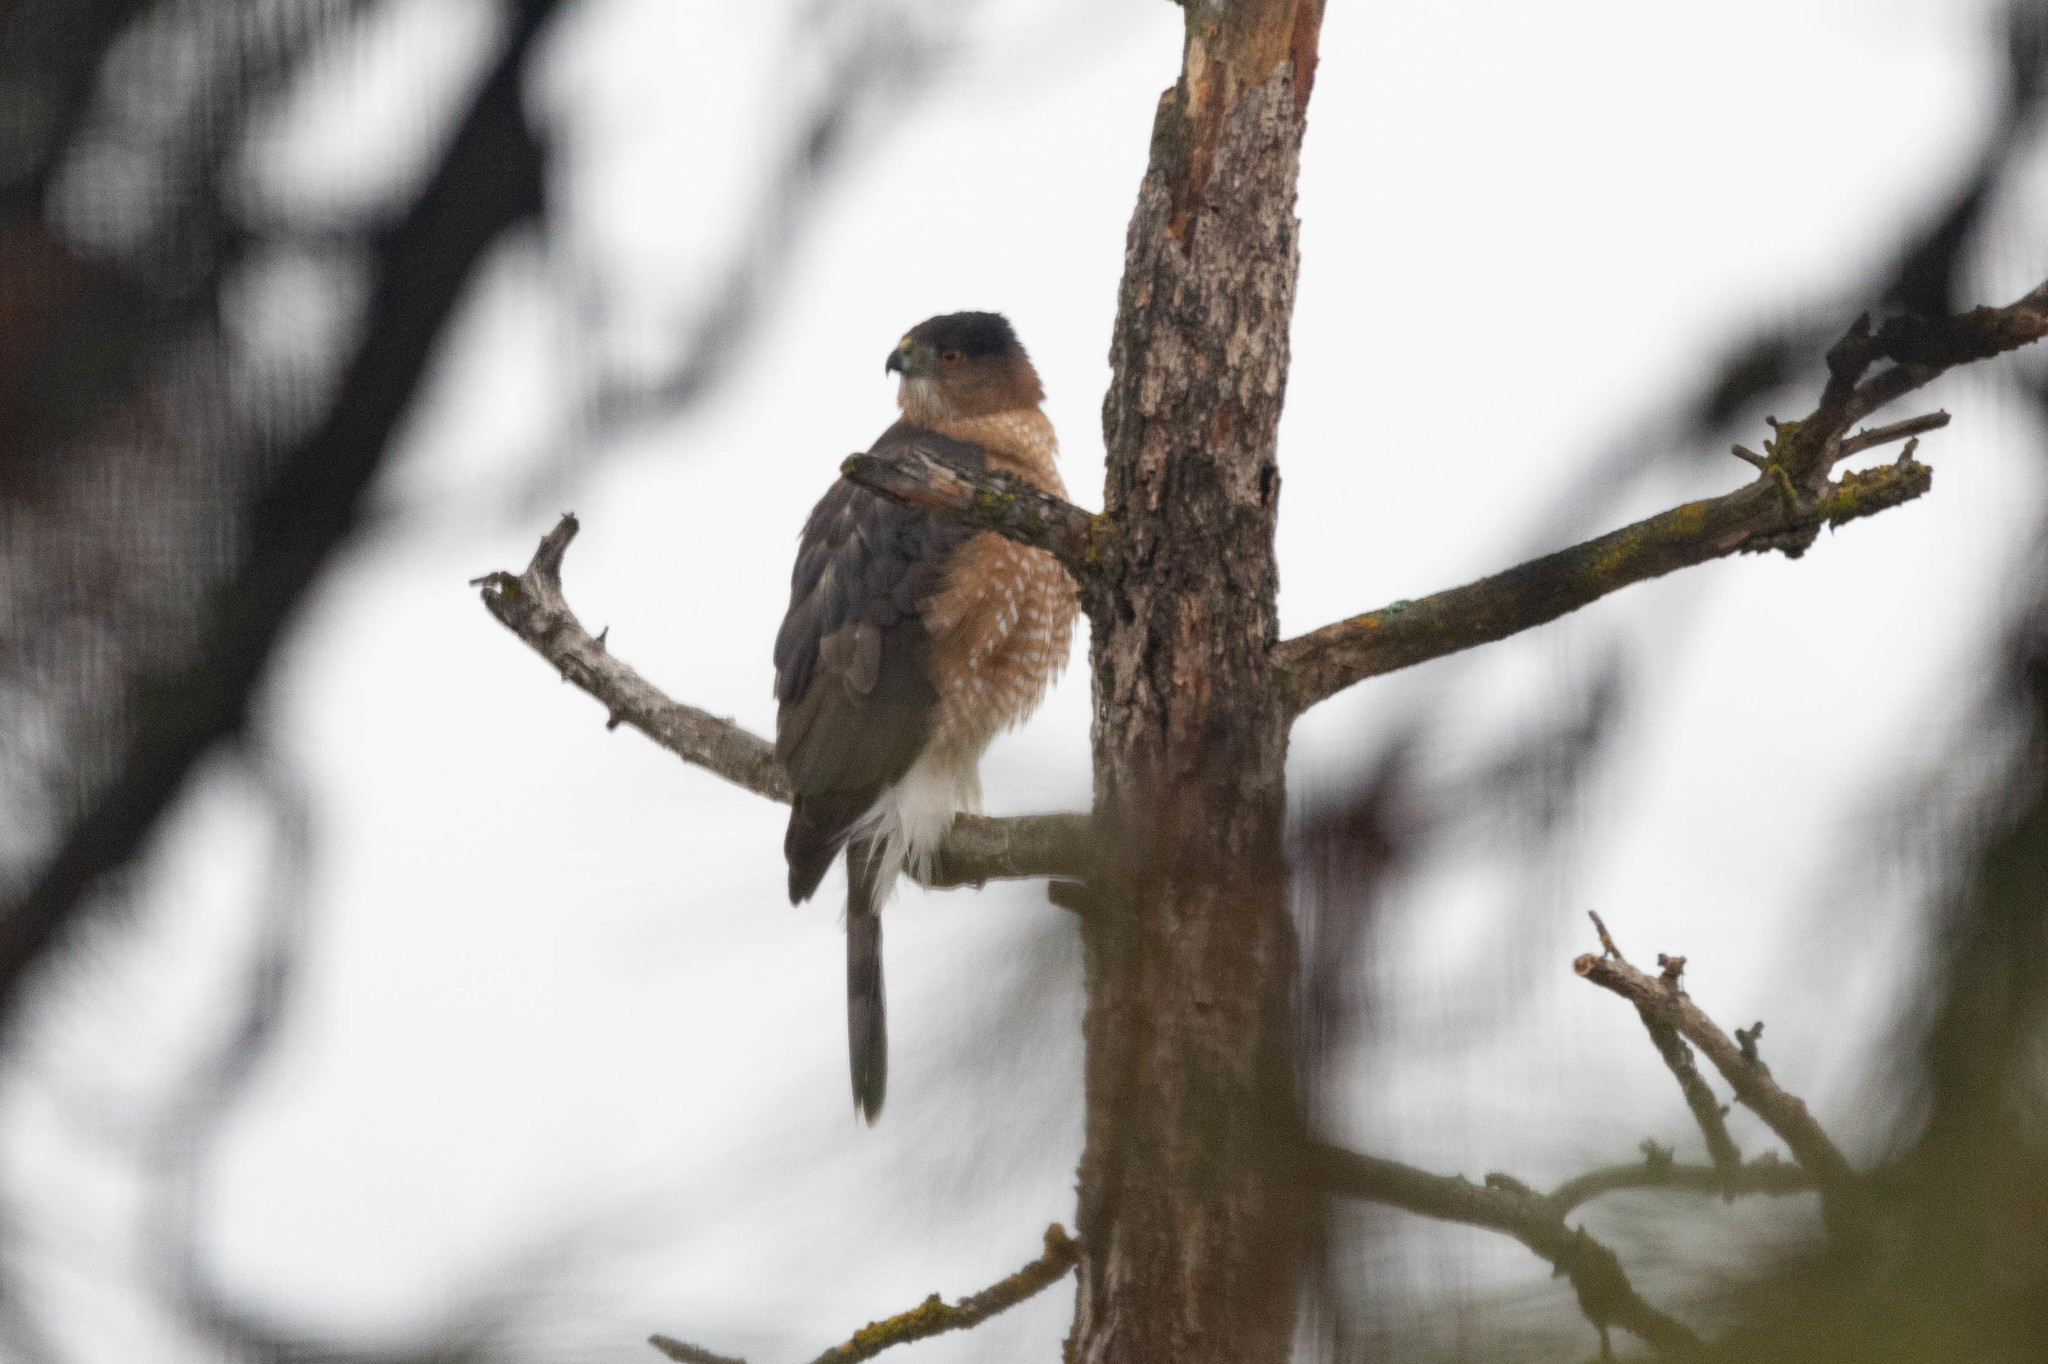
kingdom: Animalia
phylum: Chordata
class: Aves
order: Accipitriformes
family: Accipitridae
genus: Accipiter
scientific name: Accipiter cooperii
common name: Cooper's hawk
